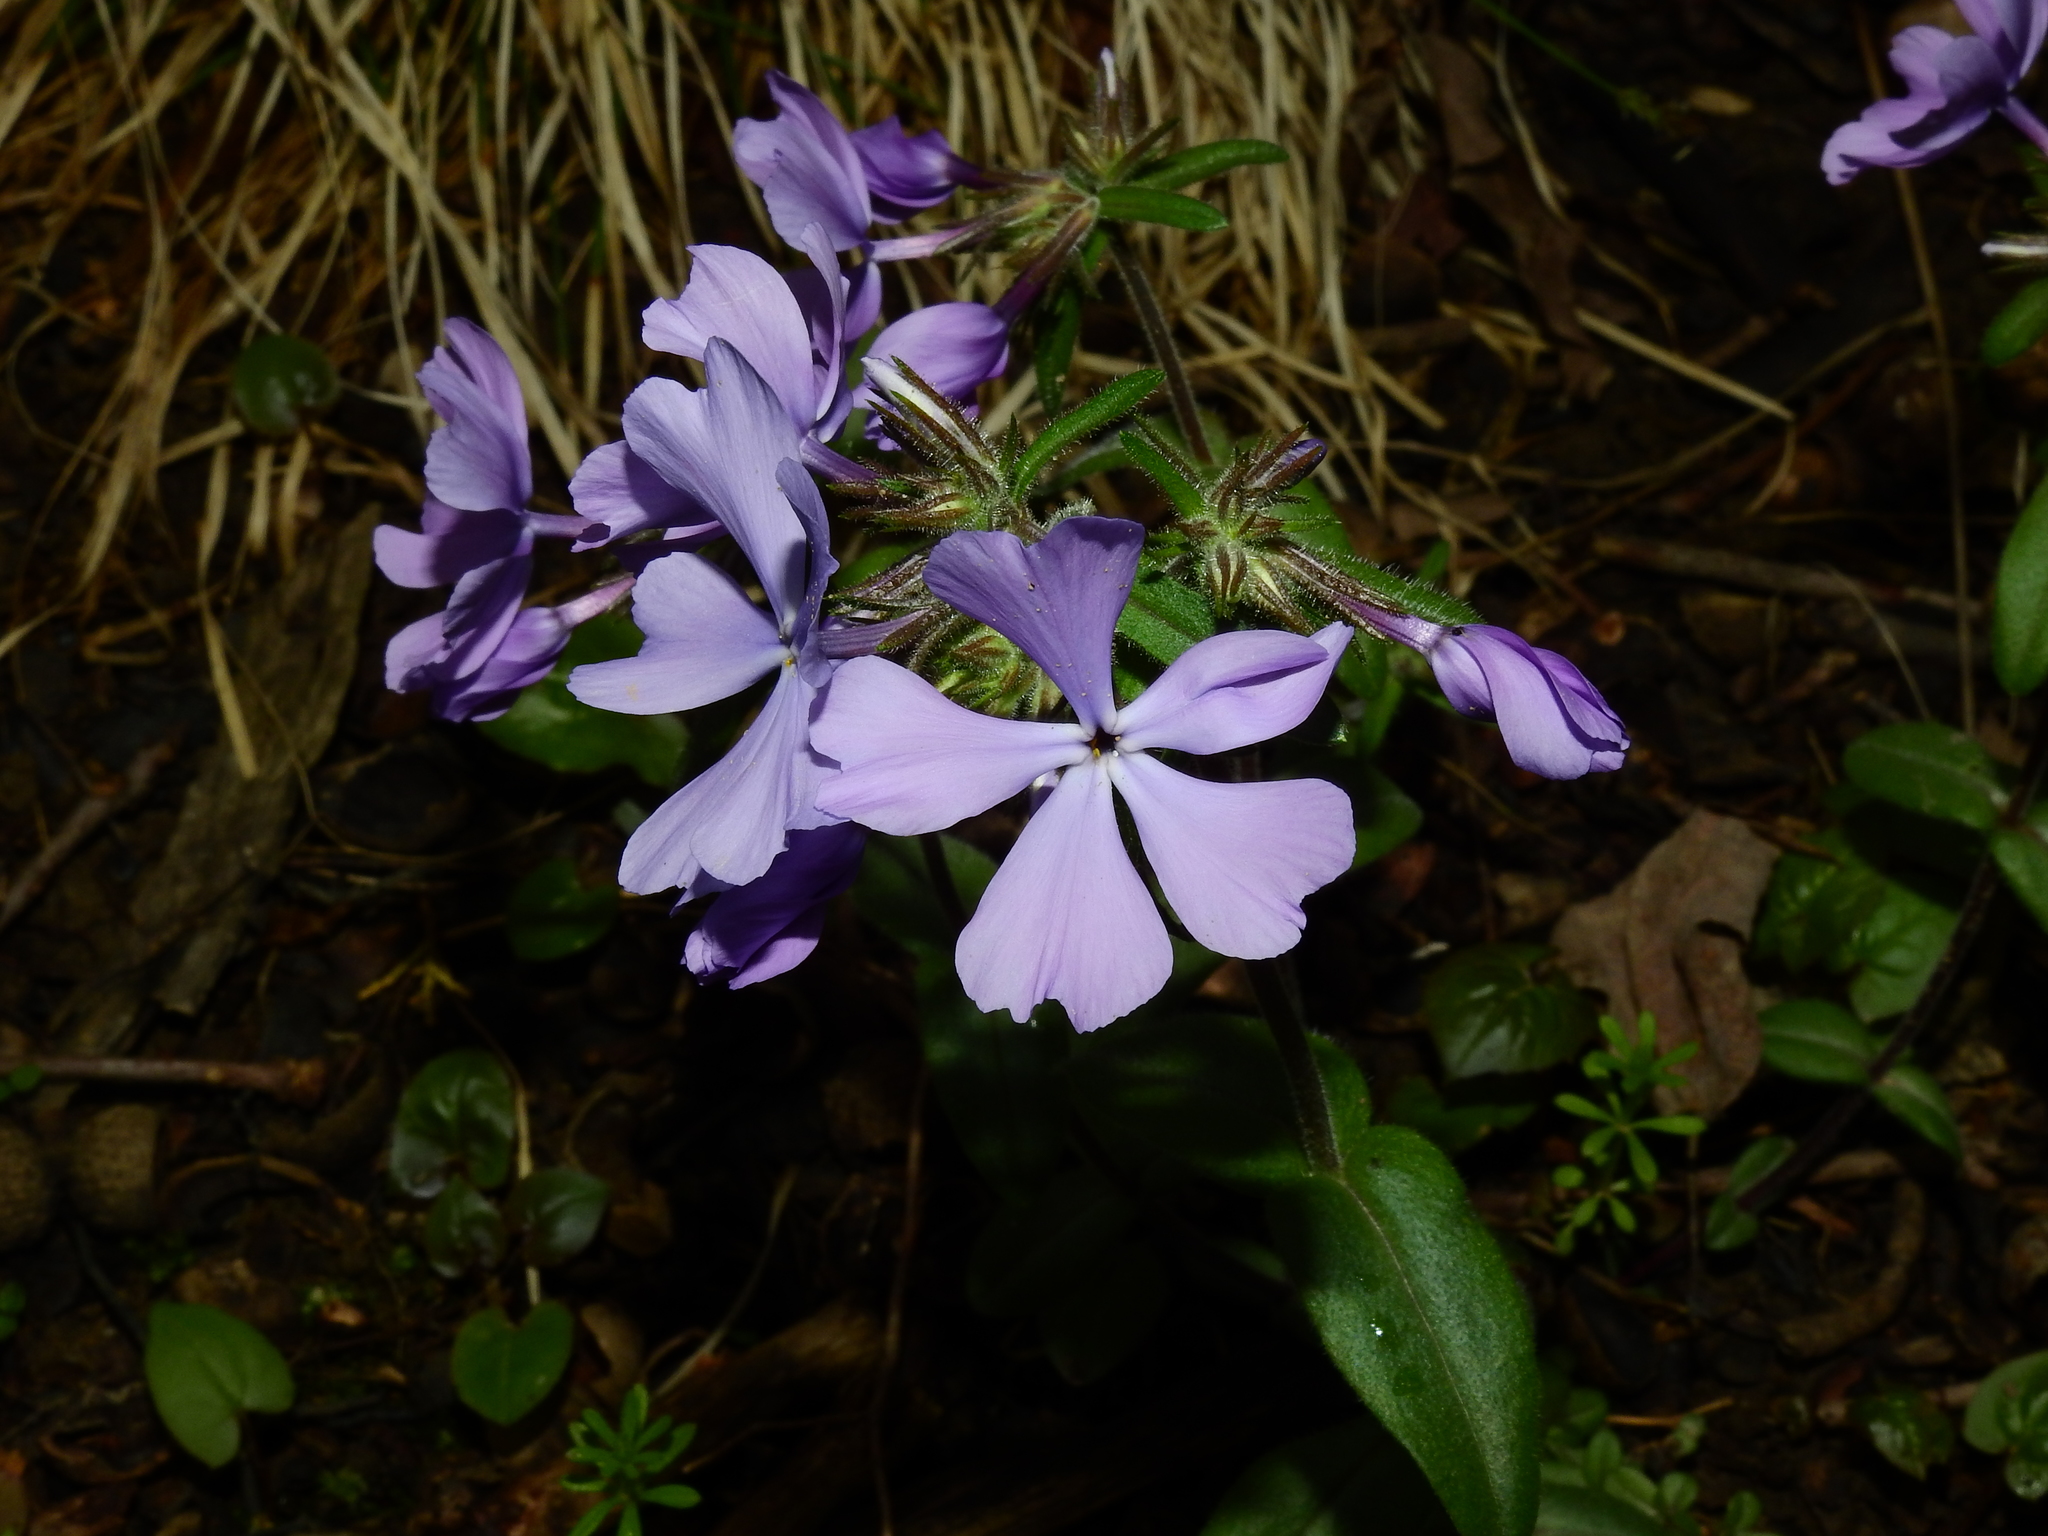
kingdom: Plantae
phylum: Tracheophyta
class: Magnoliopsida
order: Ericales
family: Polemoniaceae
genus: Phlox
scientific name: Phlox divaricata
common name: Blue phlox
